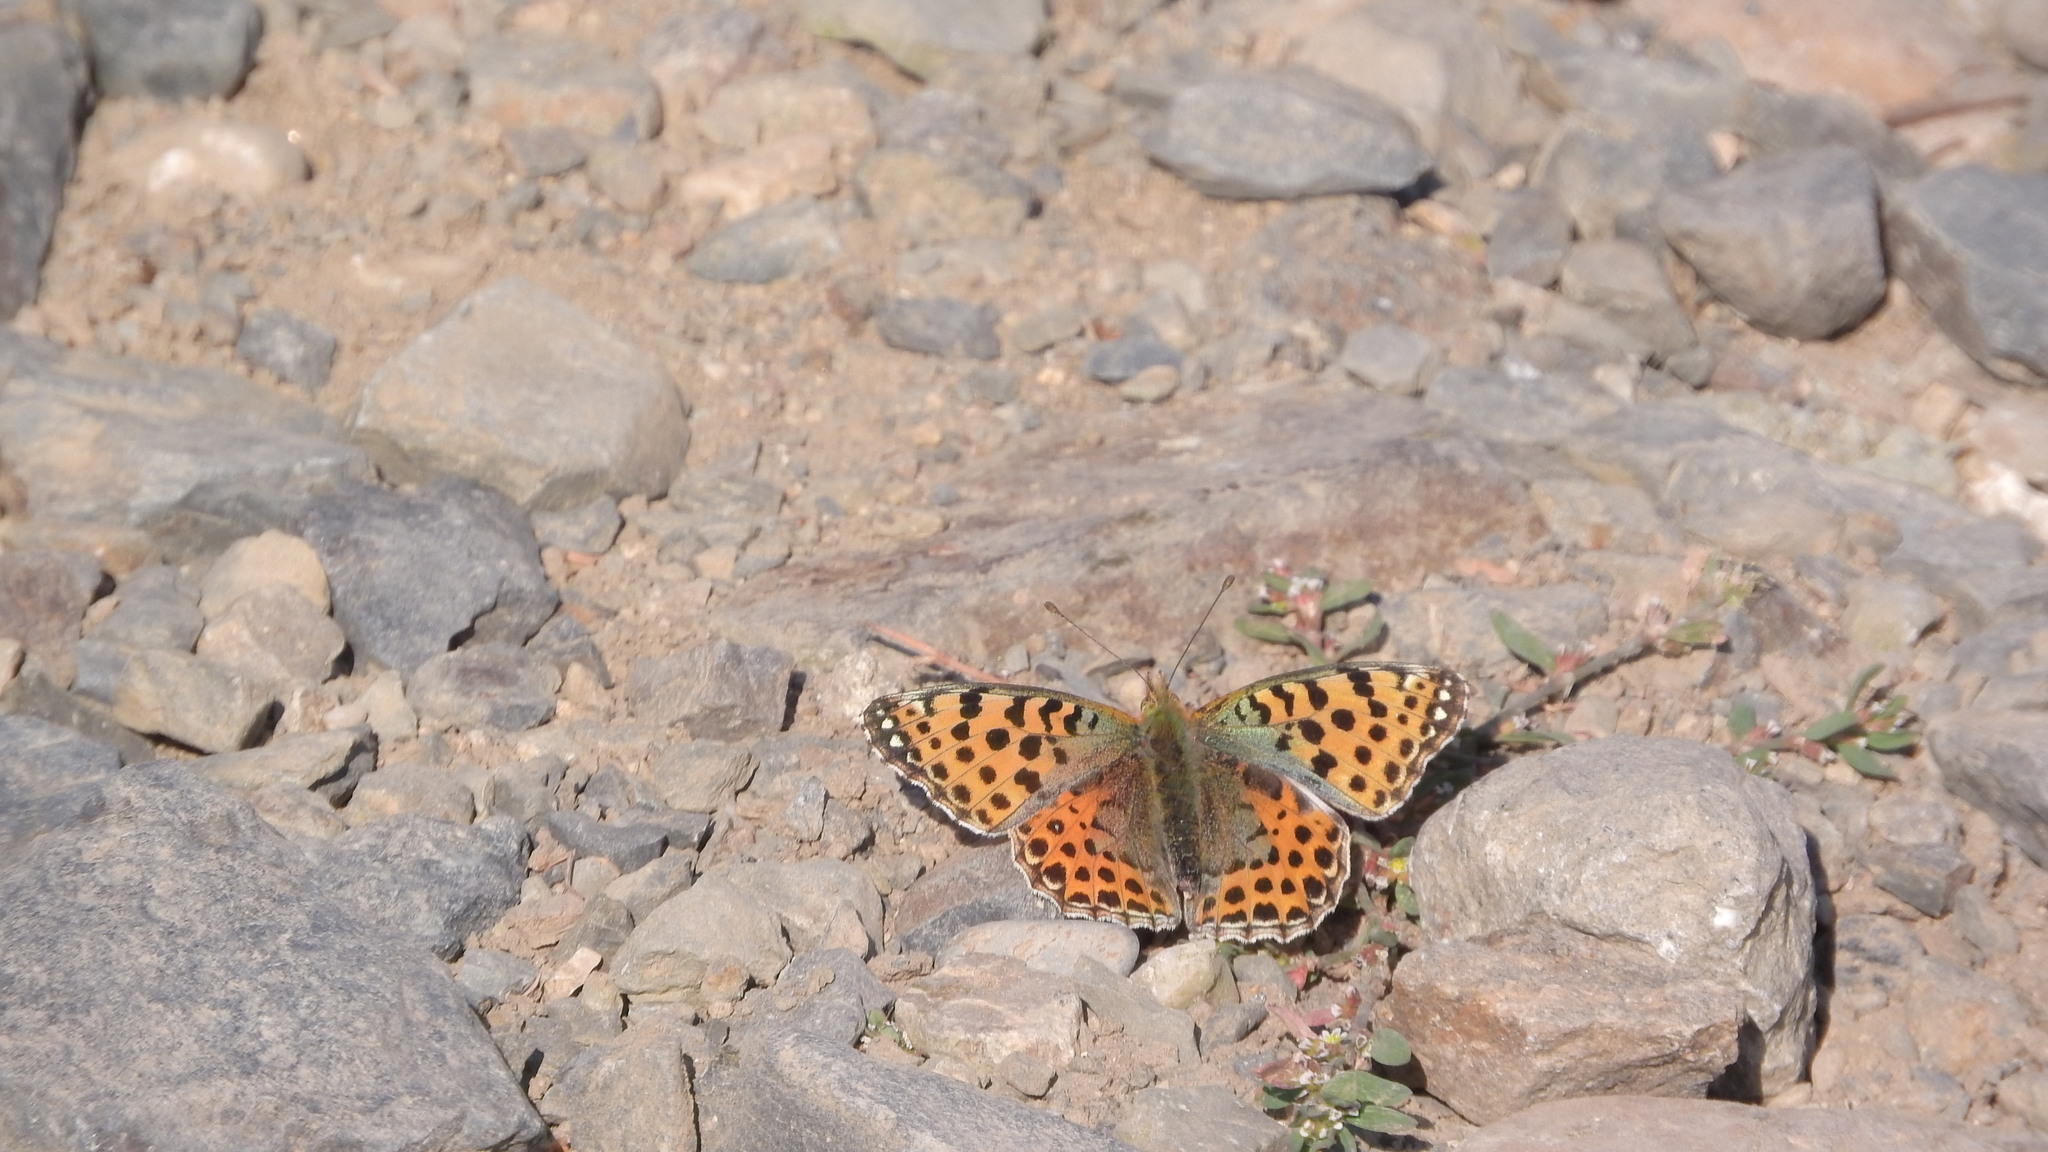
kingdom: Animalia
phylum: Arthropoda
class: Insecta
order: Lepidoptera
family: Nymphalidae
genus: Issoria
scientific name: Issoria lathonia
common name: Queen of spain fritillary
